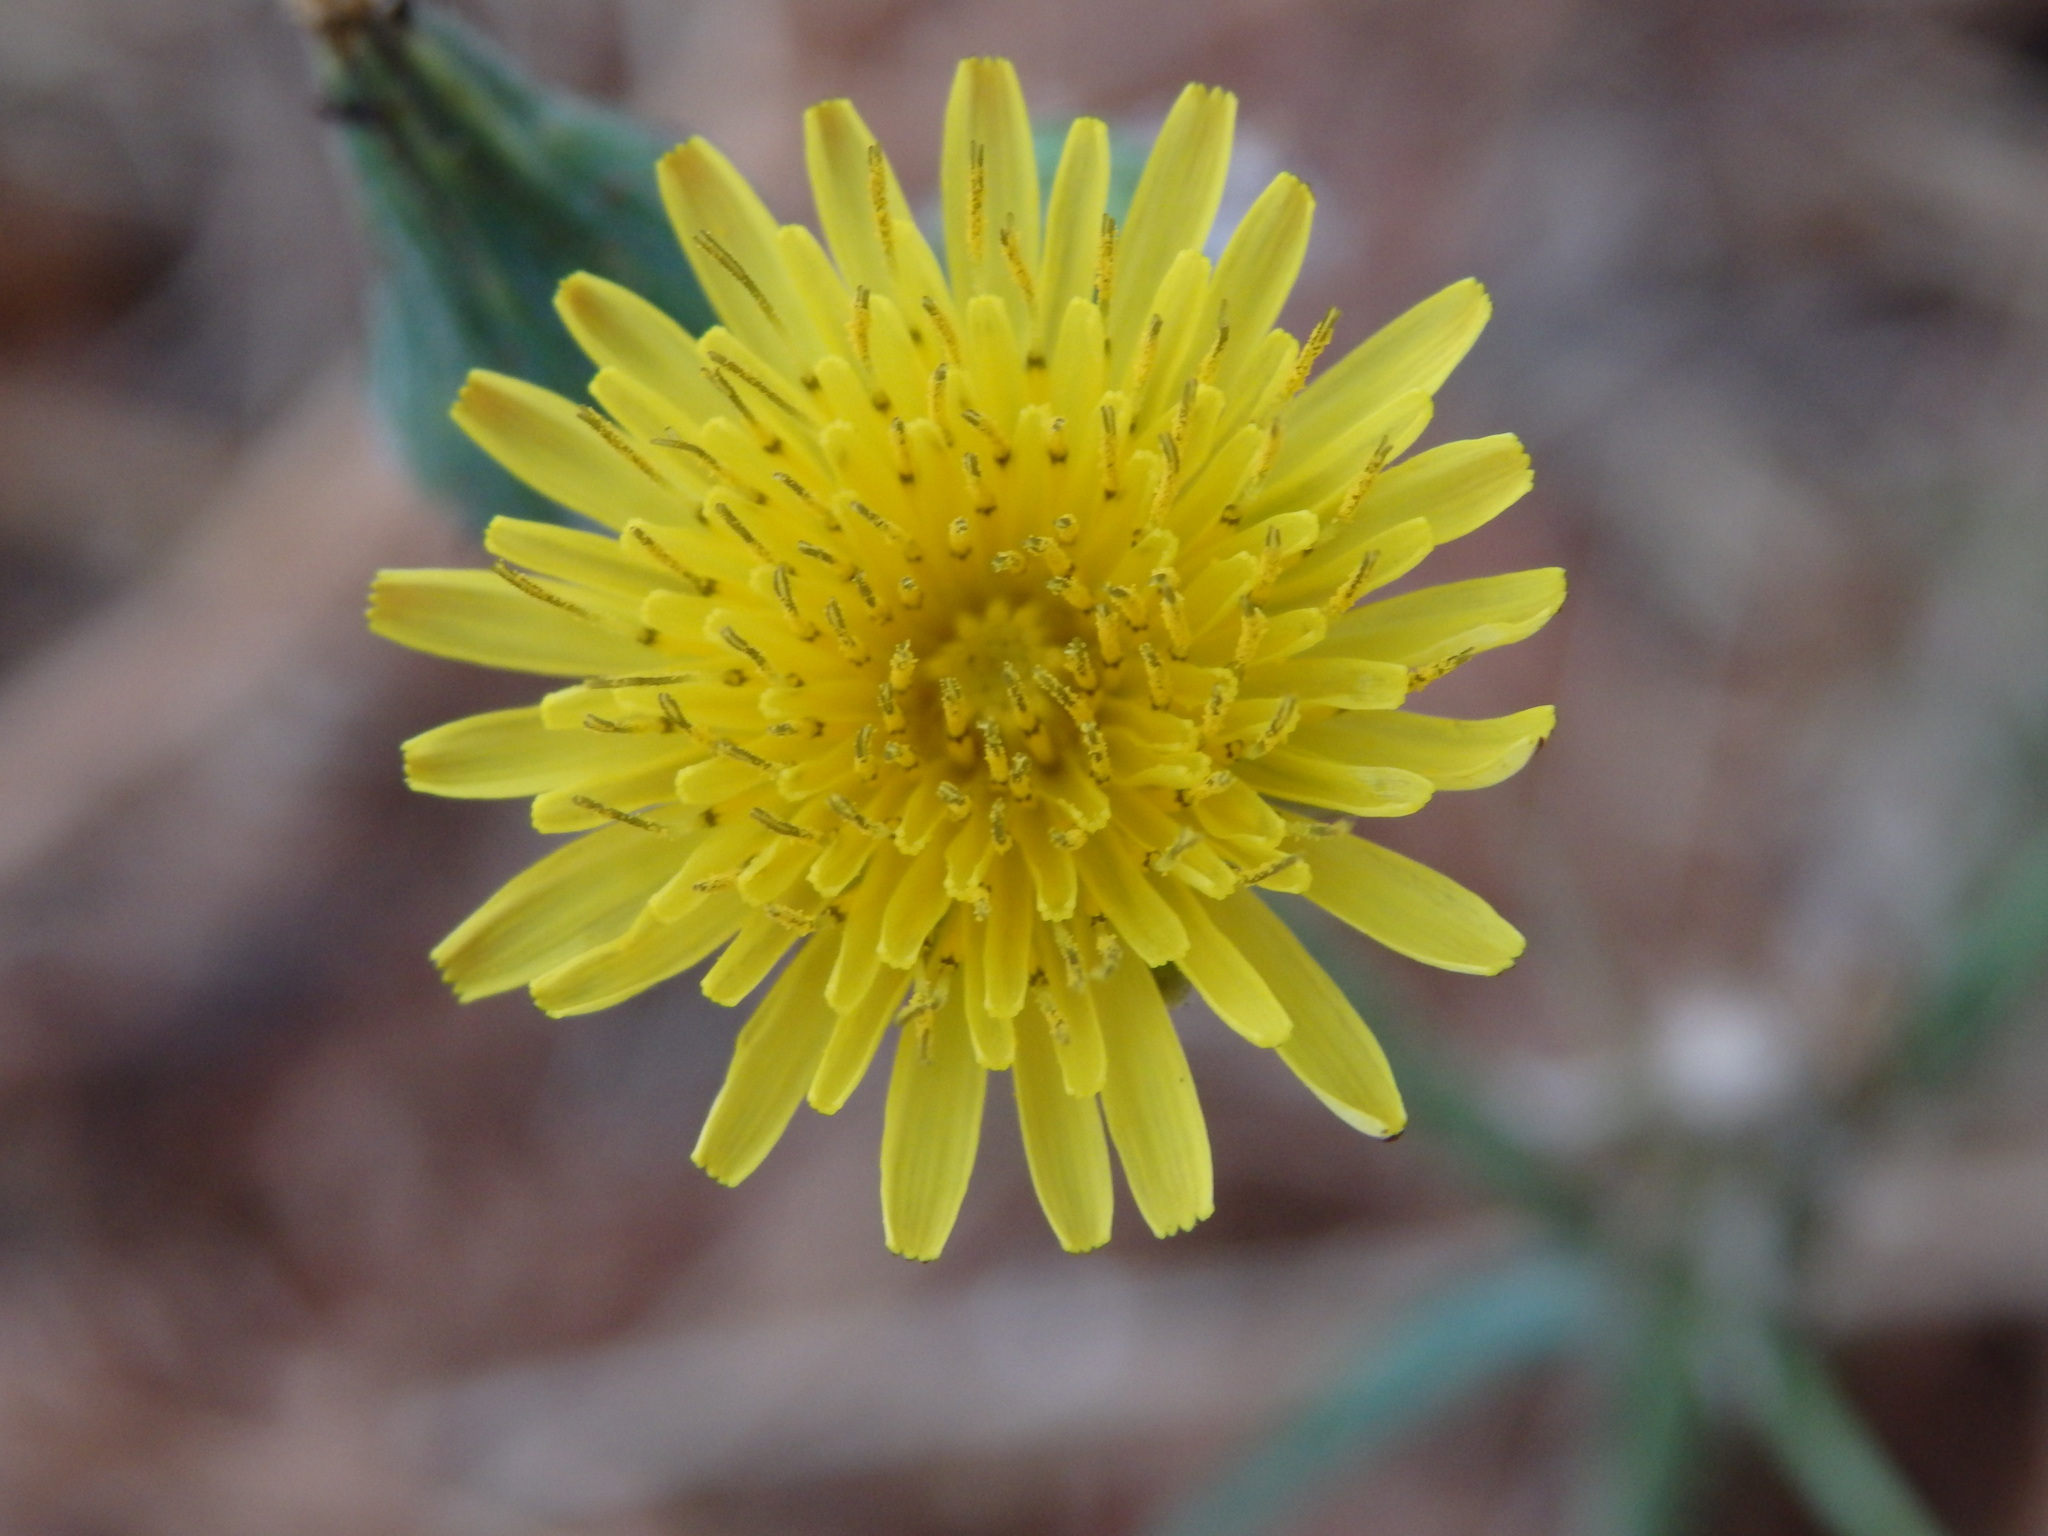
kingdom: Plantae
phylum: Tracheophyta
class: Magnoliopsida
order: Asterales
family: Asteraceae
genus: Sonchus
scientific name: Sonchus oleraceus
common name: Common sowthistle
